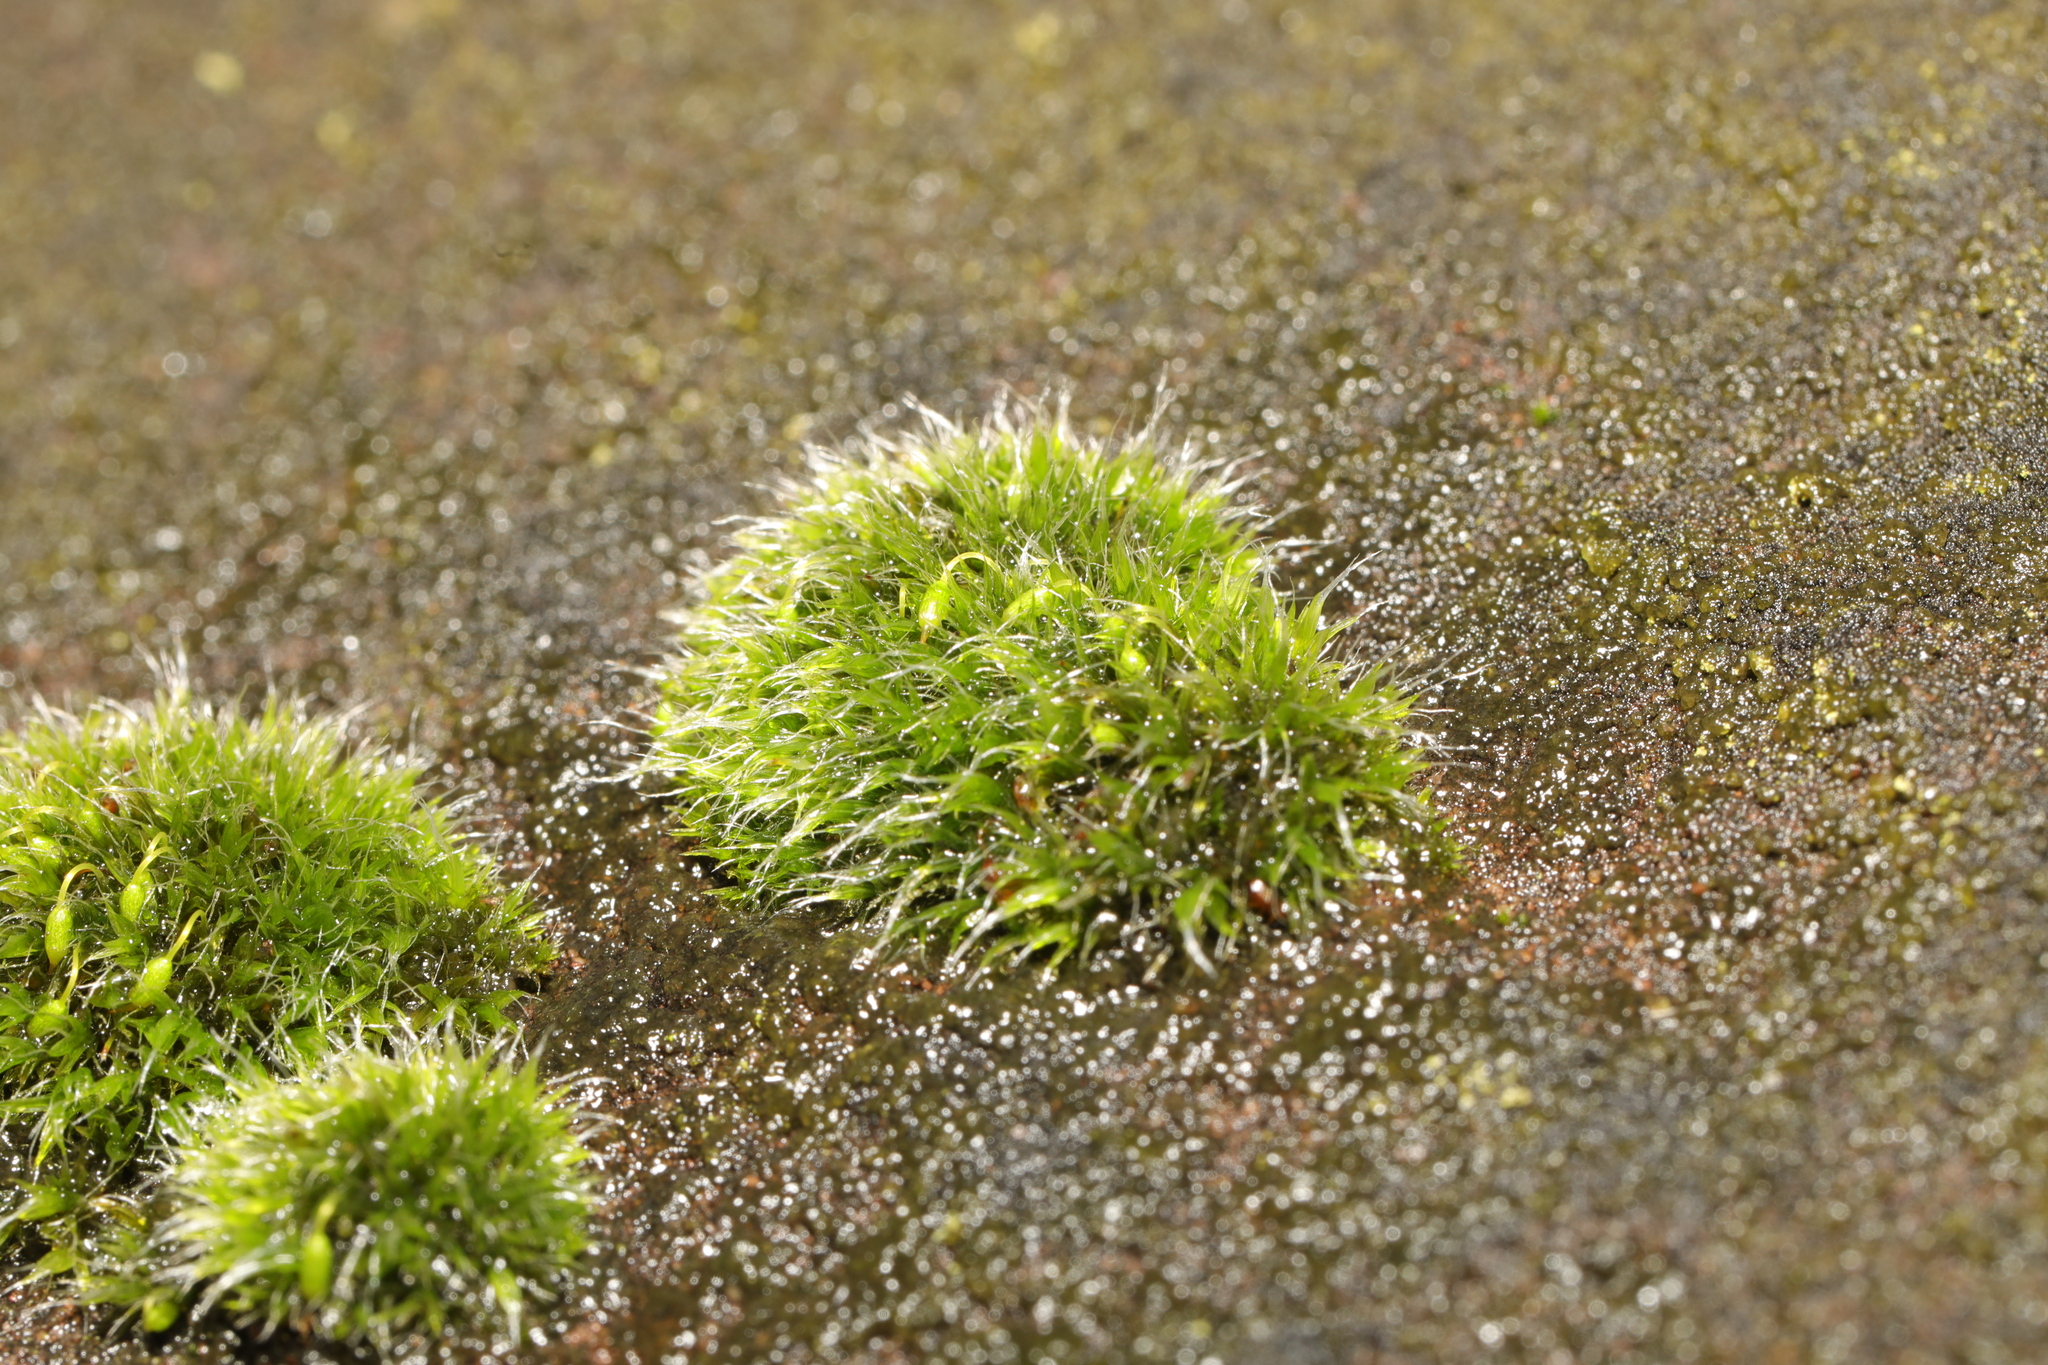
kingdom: Plantae
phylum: Bryophyta
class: Bryopsida
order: Grimmiales
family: Grimmiaceae
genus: Grimmia
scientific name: Grimmia pulvinata
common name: Grey-cushioned grimmia
